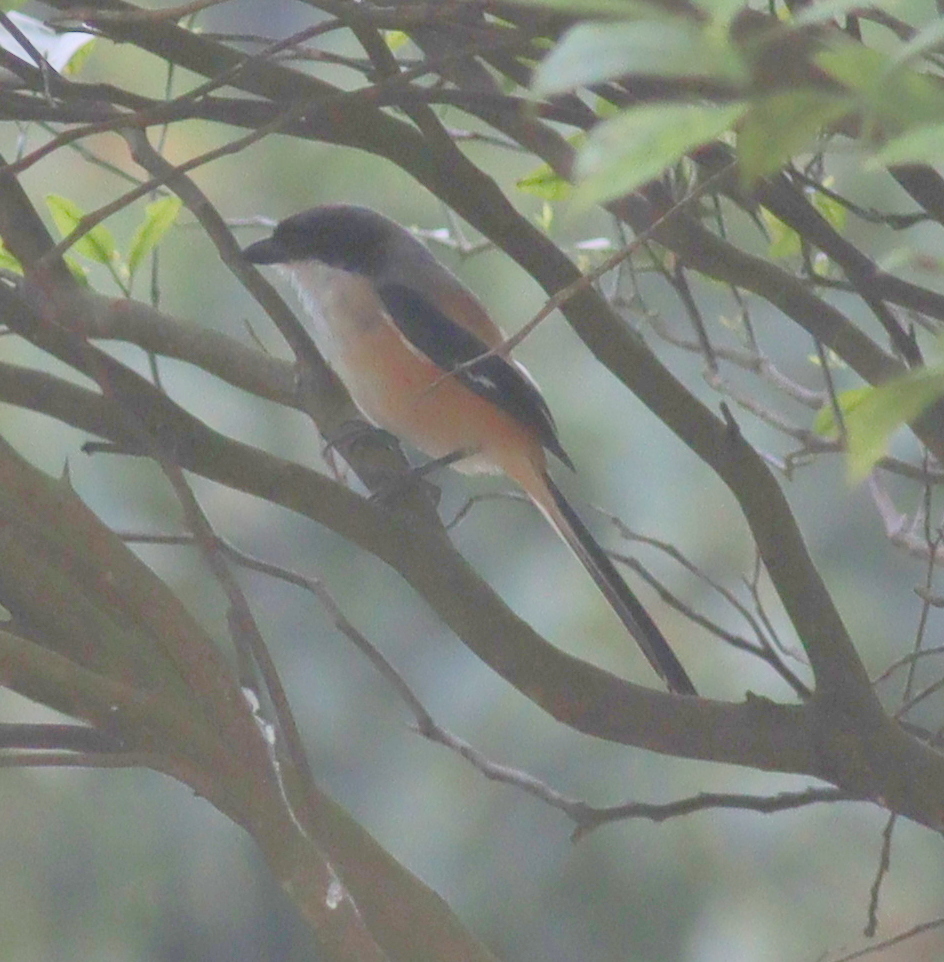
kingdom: Animalia
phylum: Chordata
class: Aves
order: Passeriformes
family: Laniidae
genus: Lanius
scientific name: Lanius schach
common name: Long-tailed shrike
